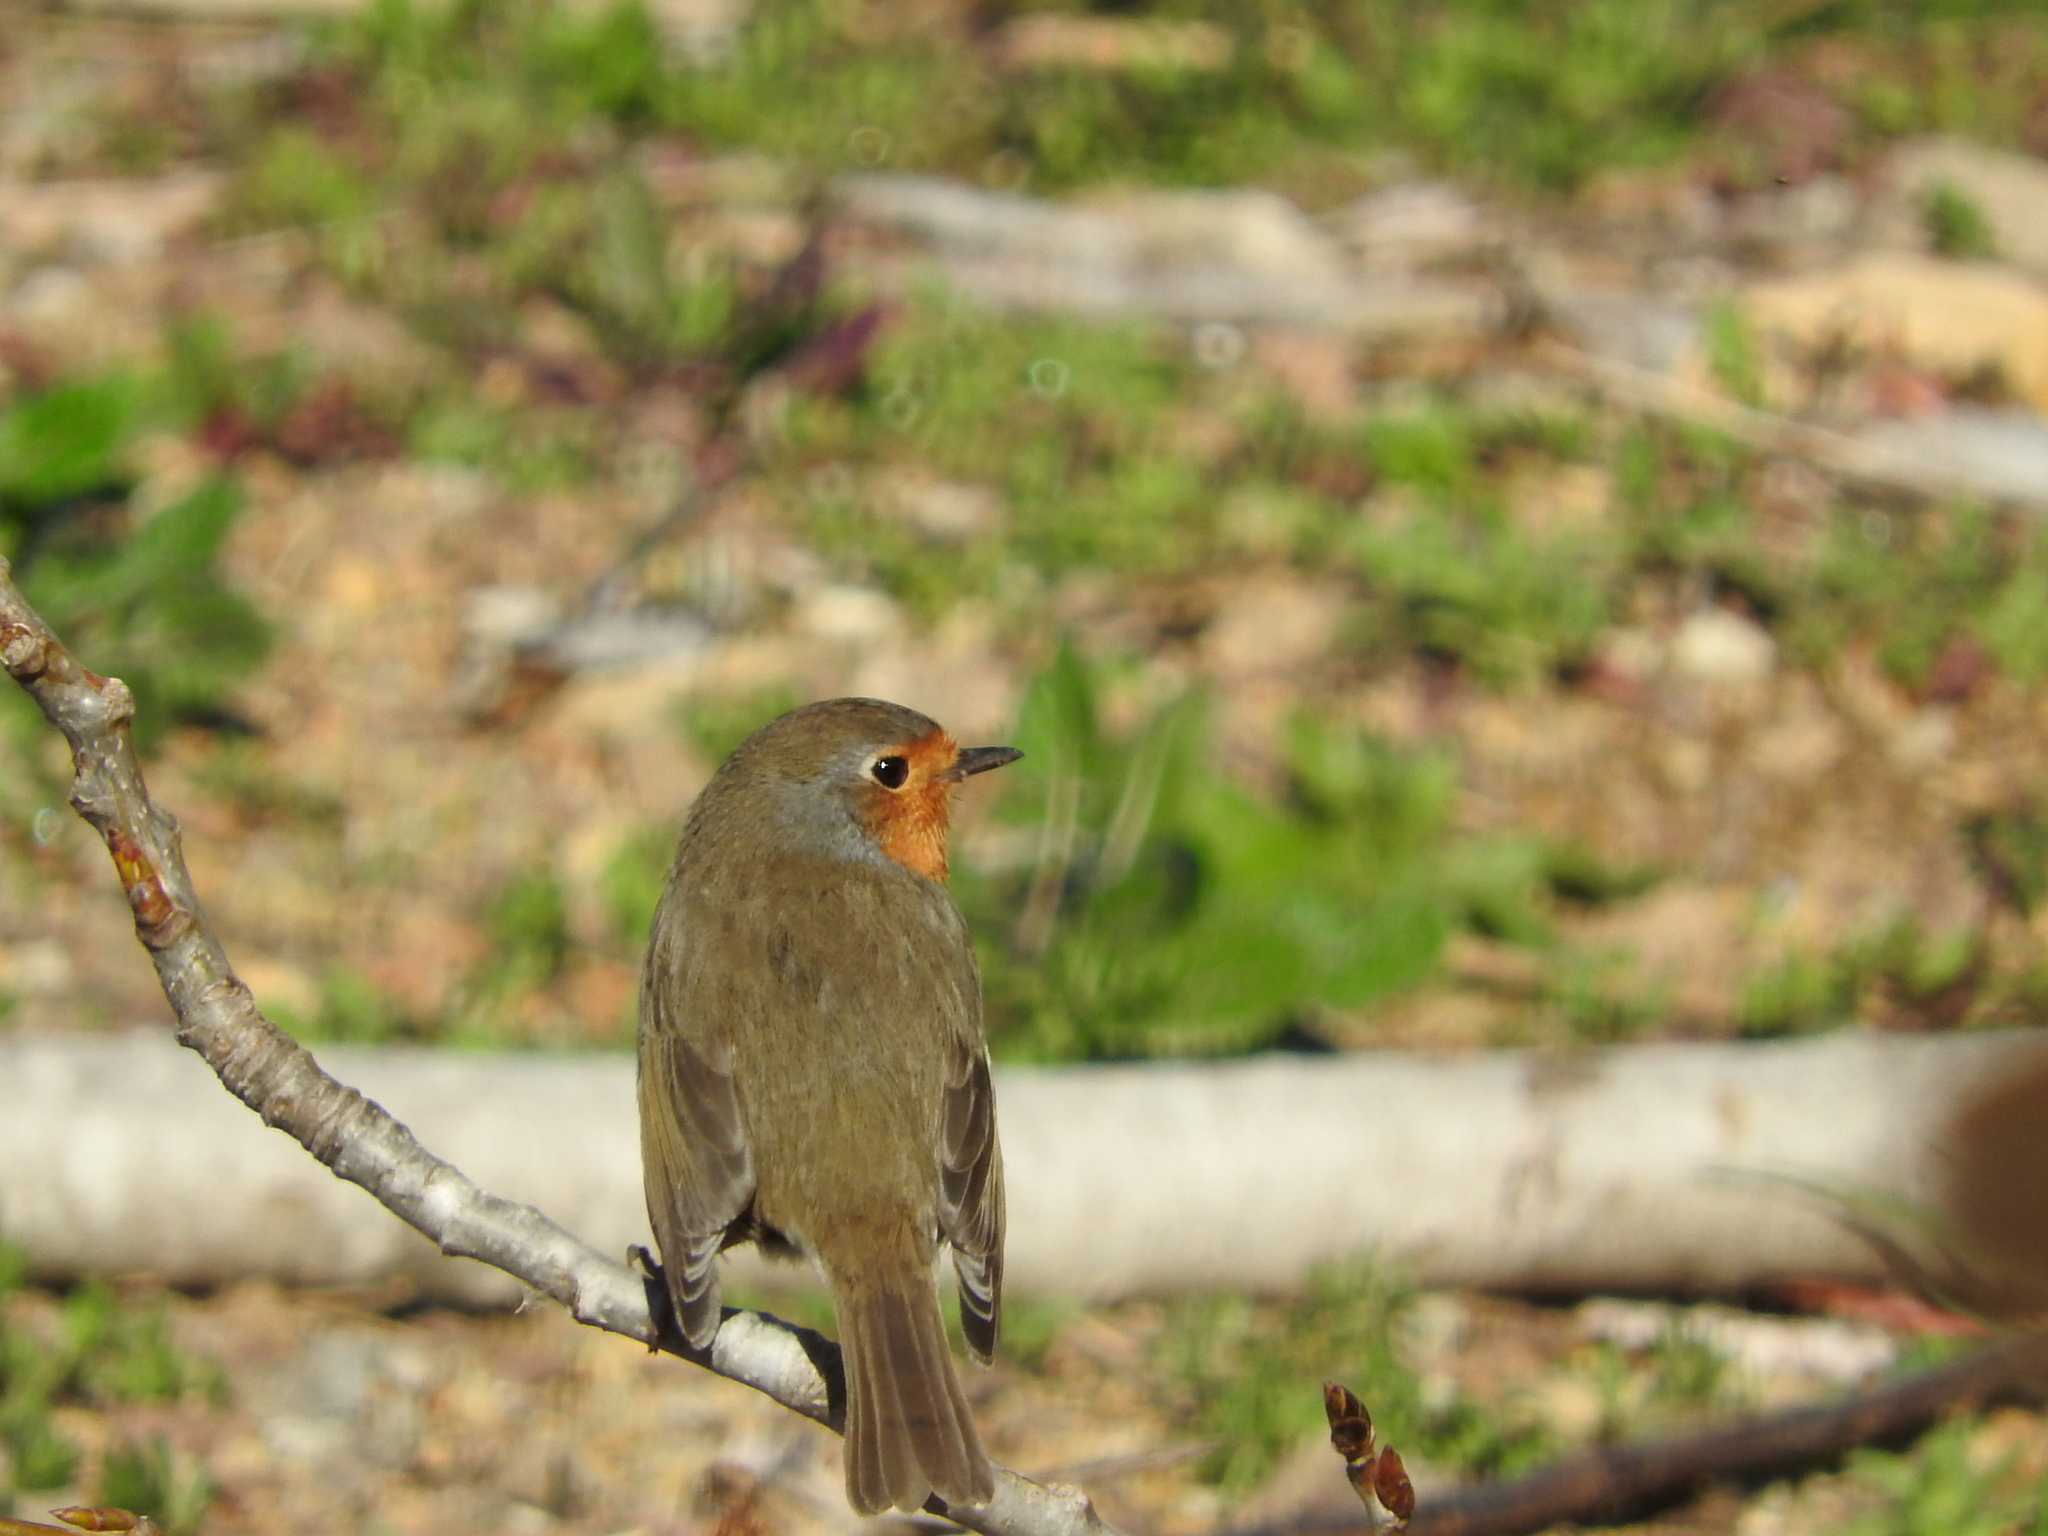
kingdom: Animalia
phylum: Chordata
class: Aves
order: Passeriformes
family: Muscicapidae
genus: Erithacus
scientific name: Erithacus rubecula
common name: European robin
